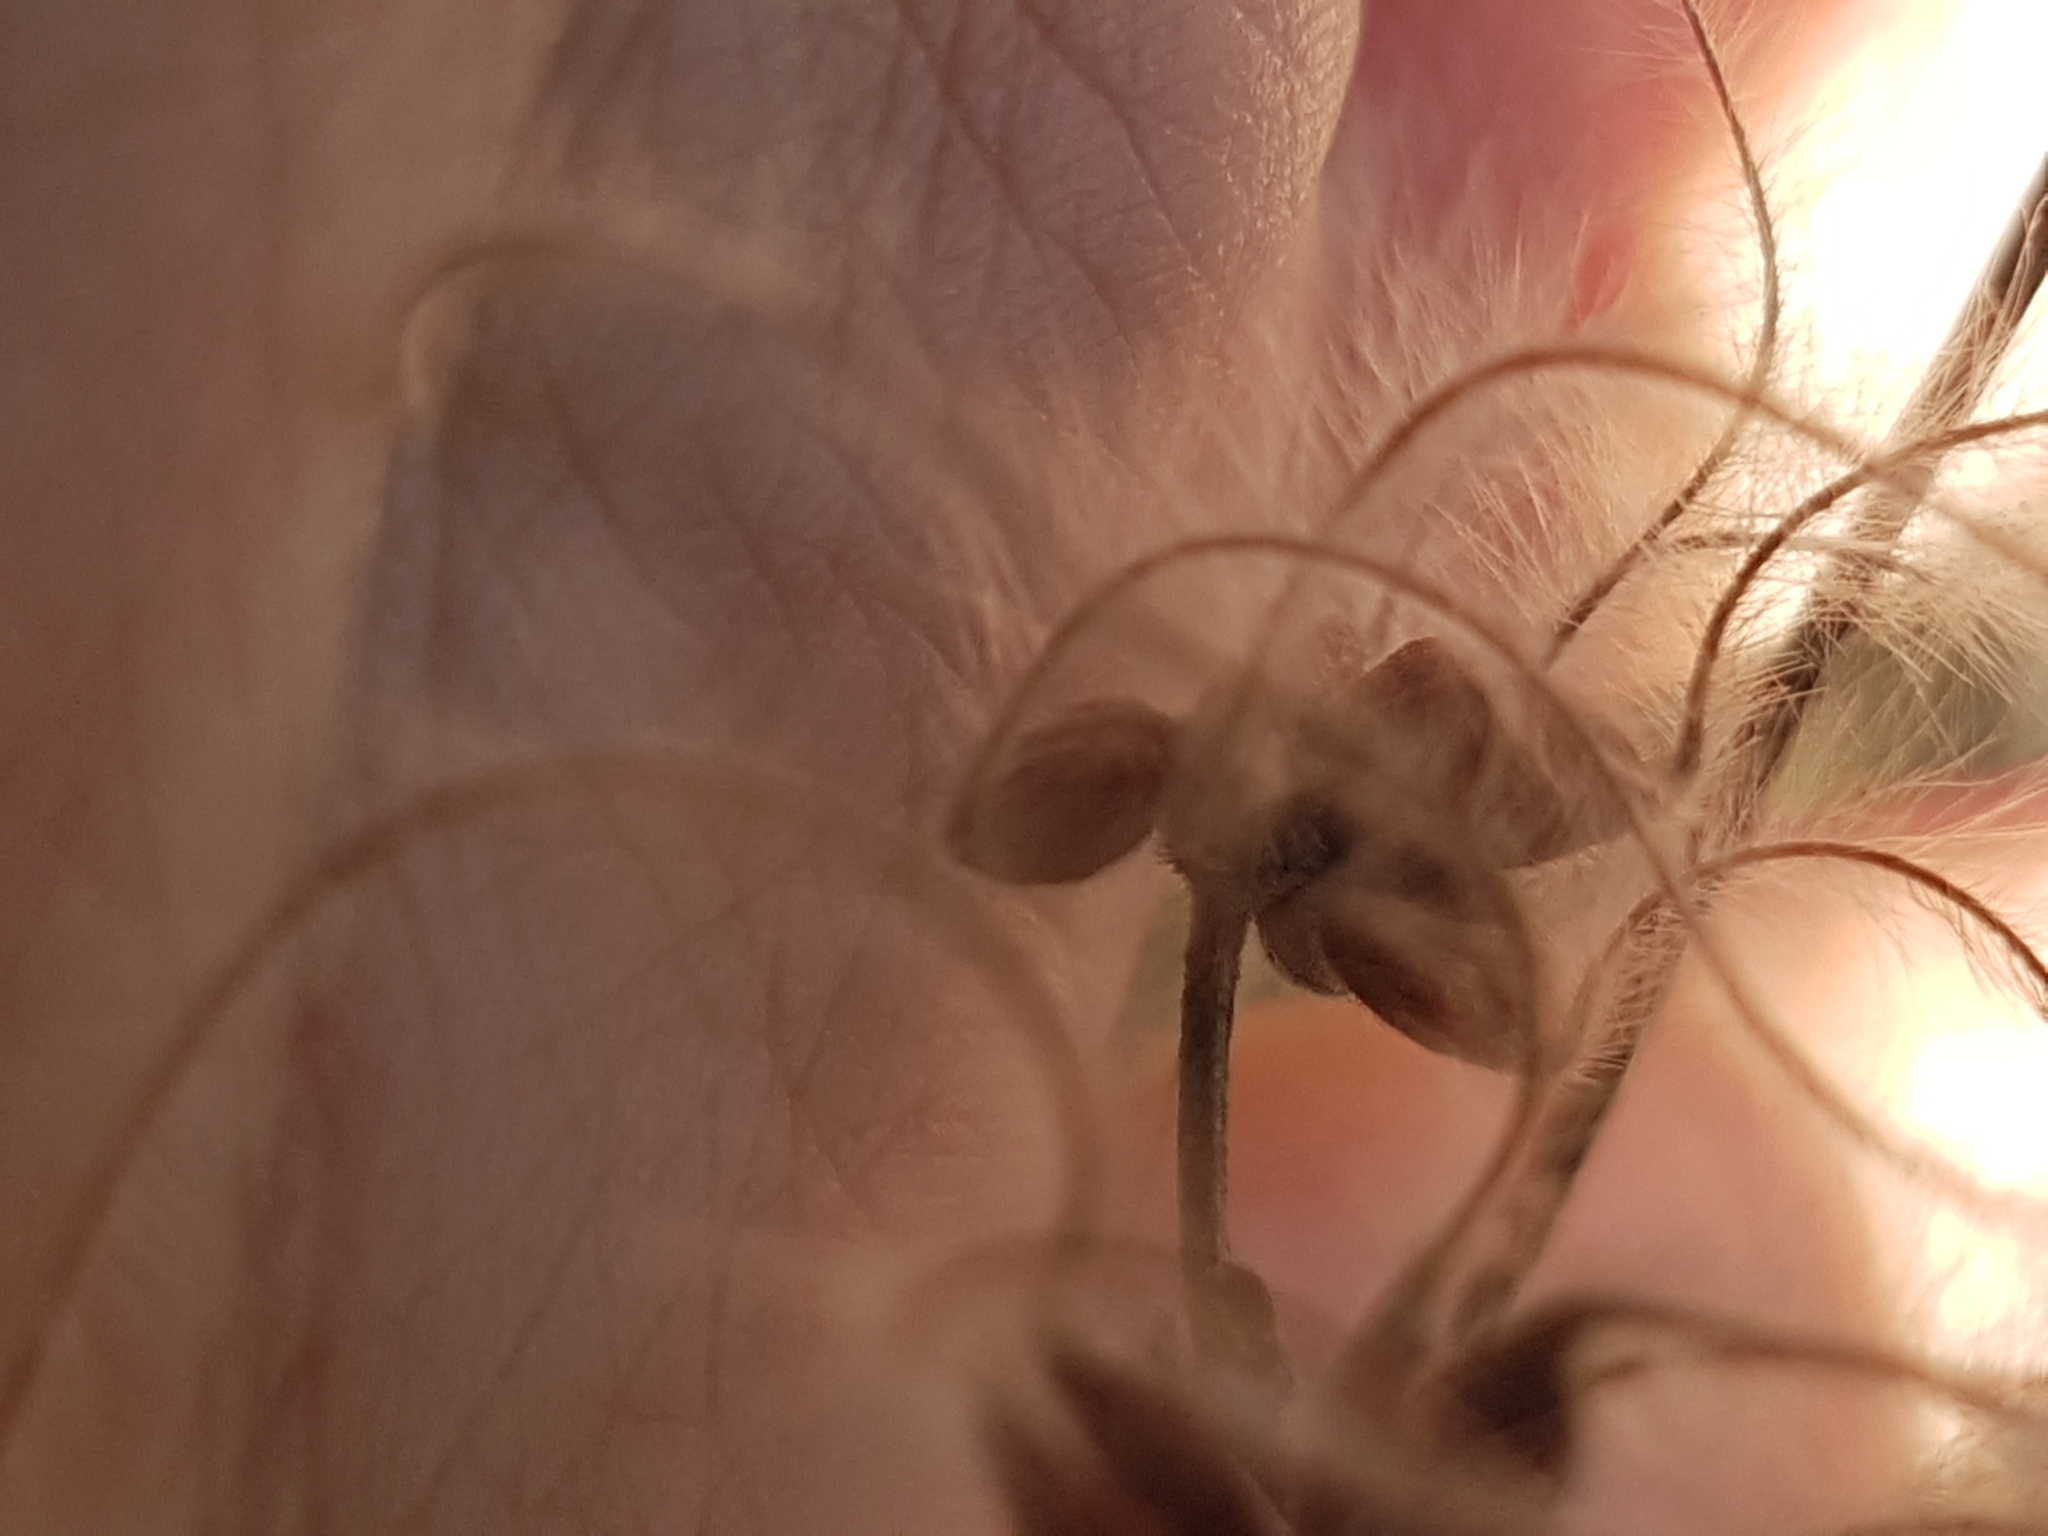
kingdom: Plantae
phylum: Tracheophyta
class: Magnoliopsida
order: Ranunculales
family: Ranunculaceae
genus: Clematis
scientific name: Clematis flammula
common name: Virgin's-bower
